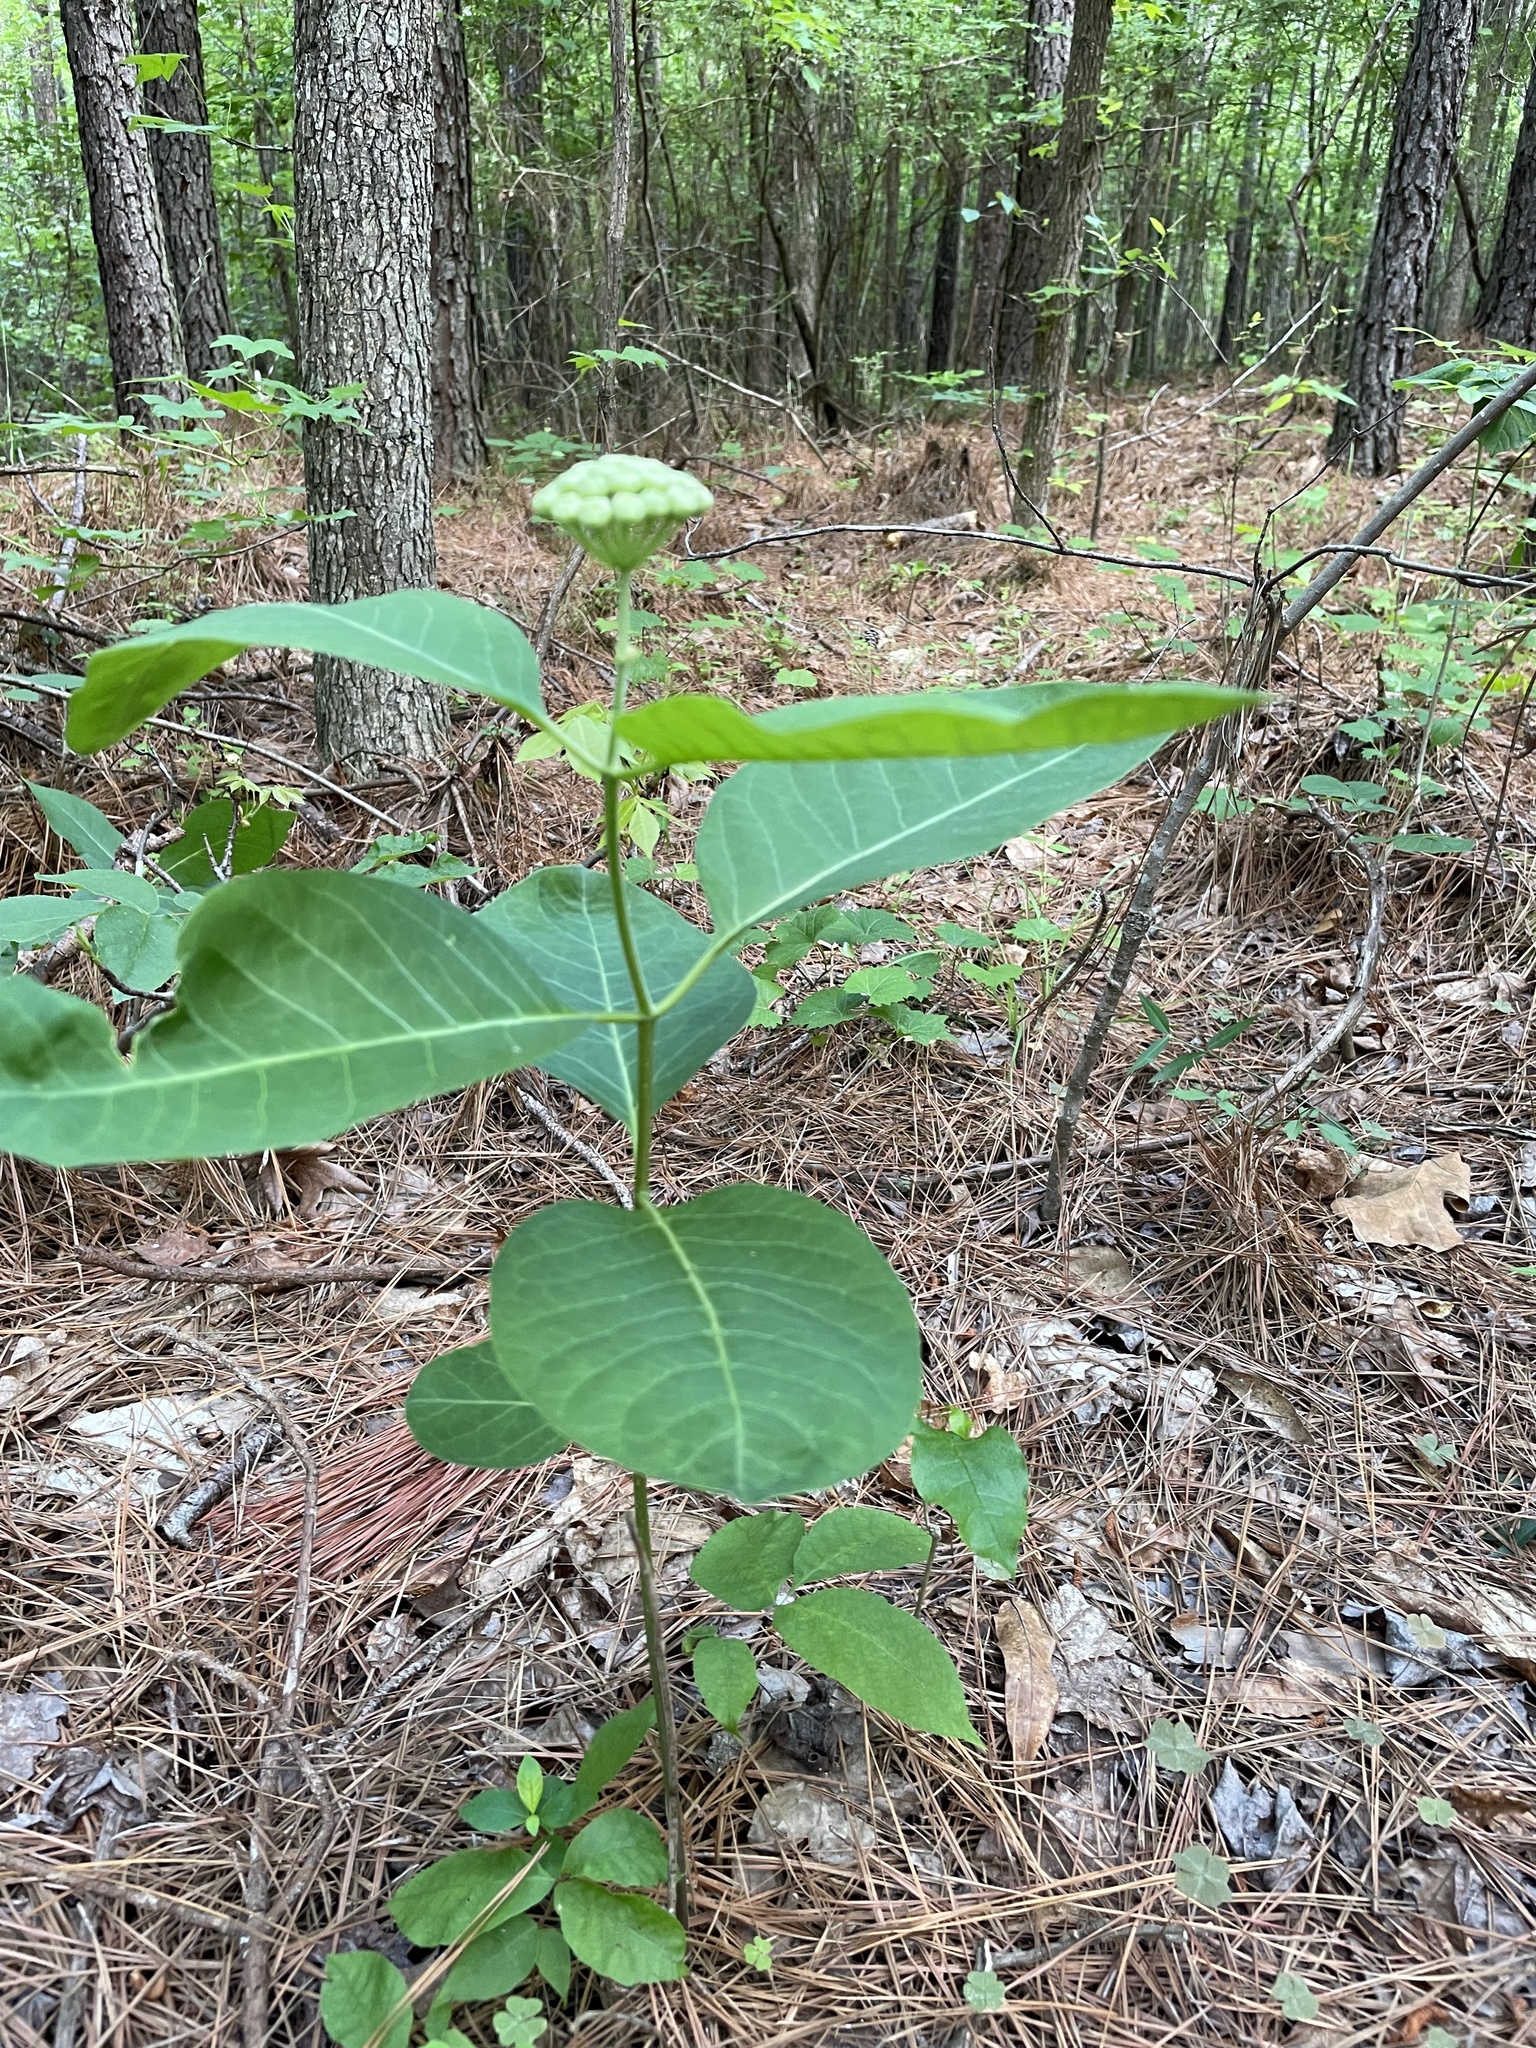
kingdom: Plantae
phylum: Tracheophyta
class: Magnoliopsida
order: Gentianales
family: Apocynaceae
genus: Asclepias
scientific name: Asclepias variegata
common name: Variegated milkweed
